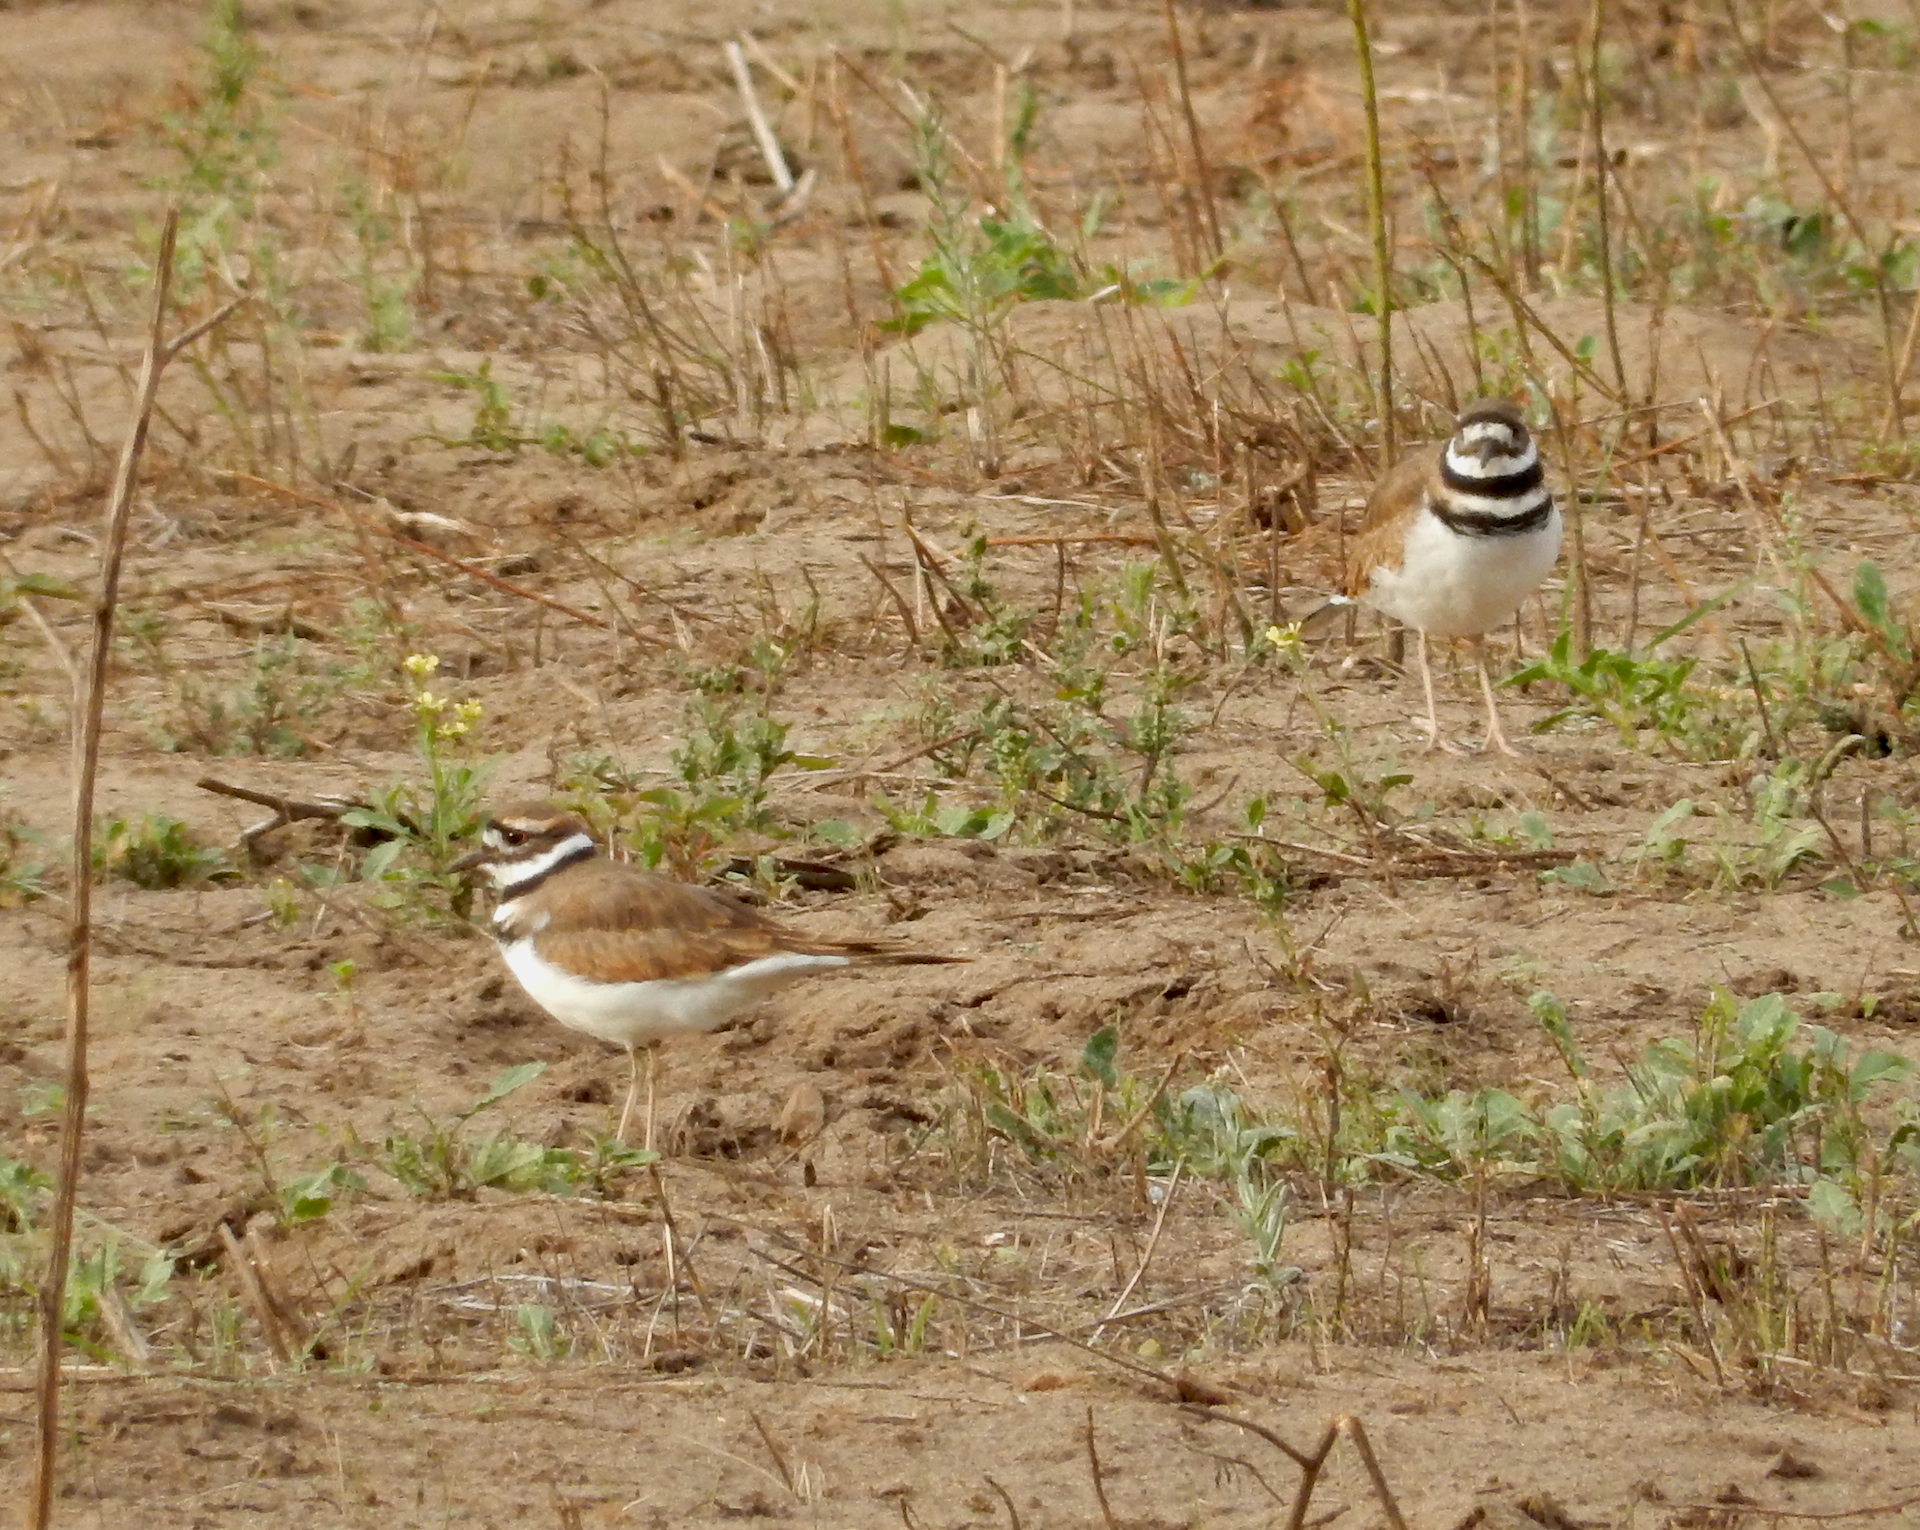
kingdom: Animalia
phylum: Chordata
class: Aves
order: Charadriiformes
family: Charadriidae
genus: Charadrius
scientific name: Charadrius vociferus
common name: Killdeer
